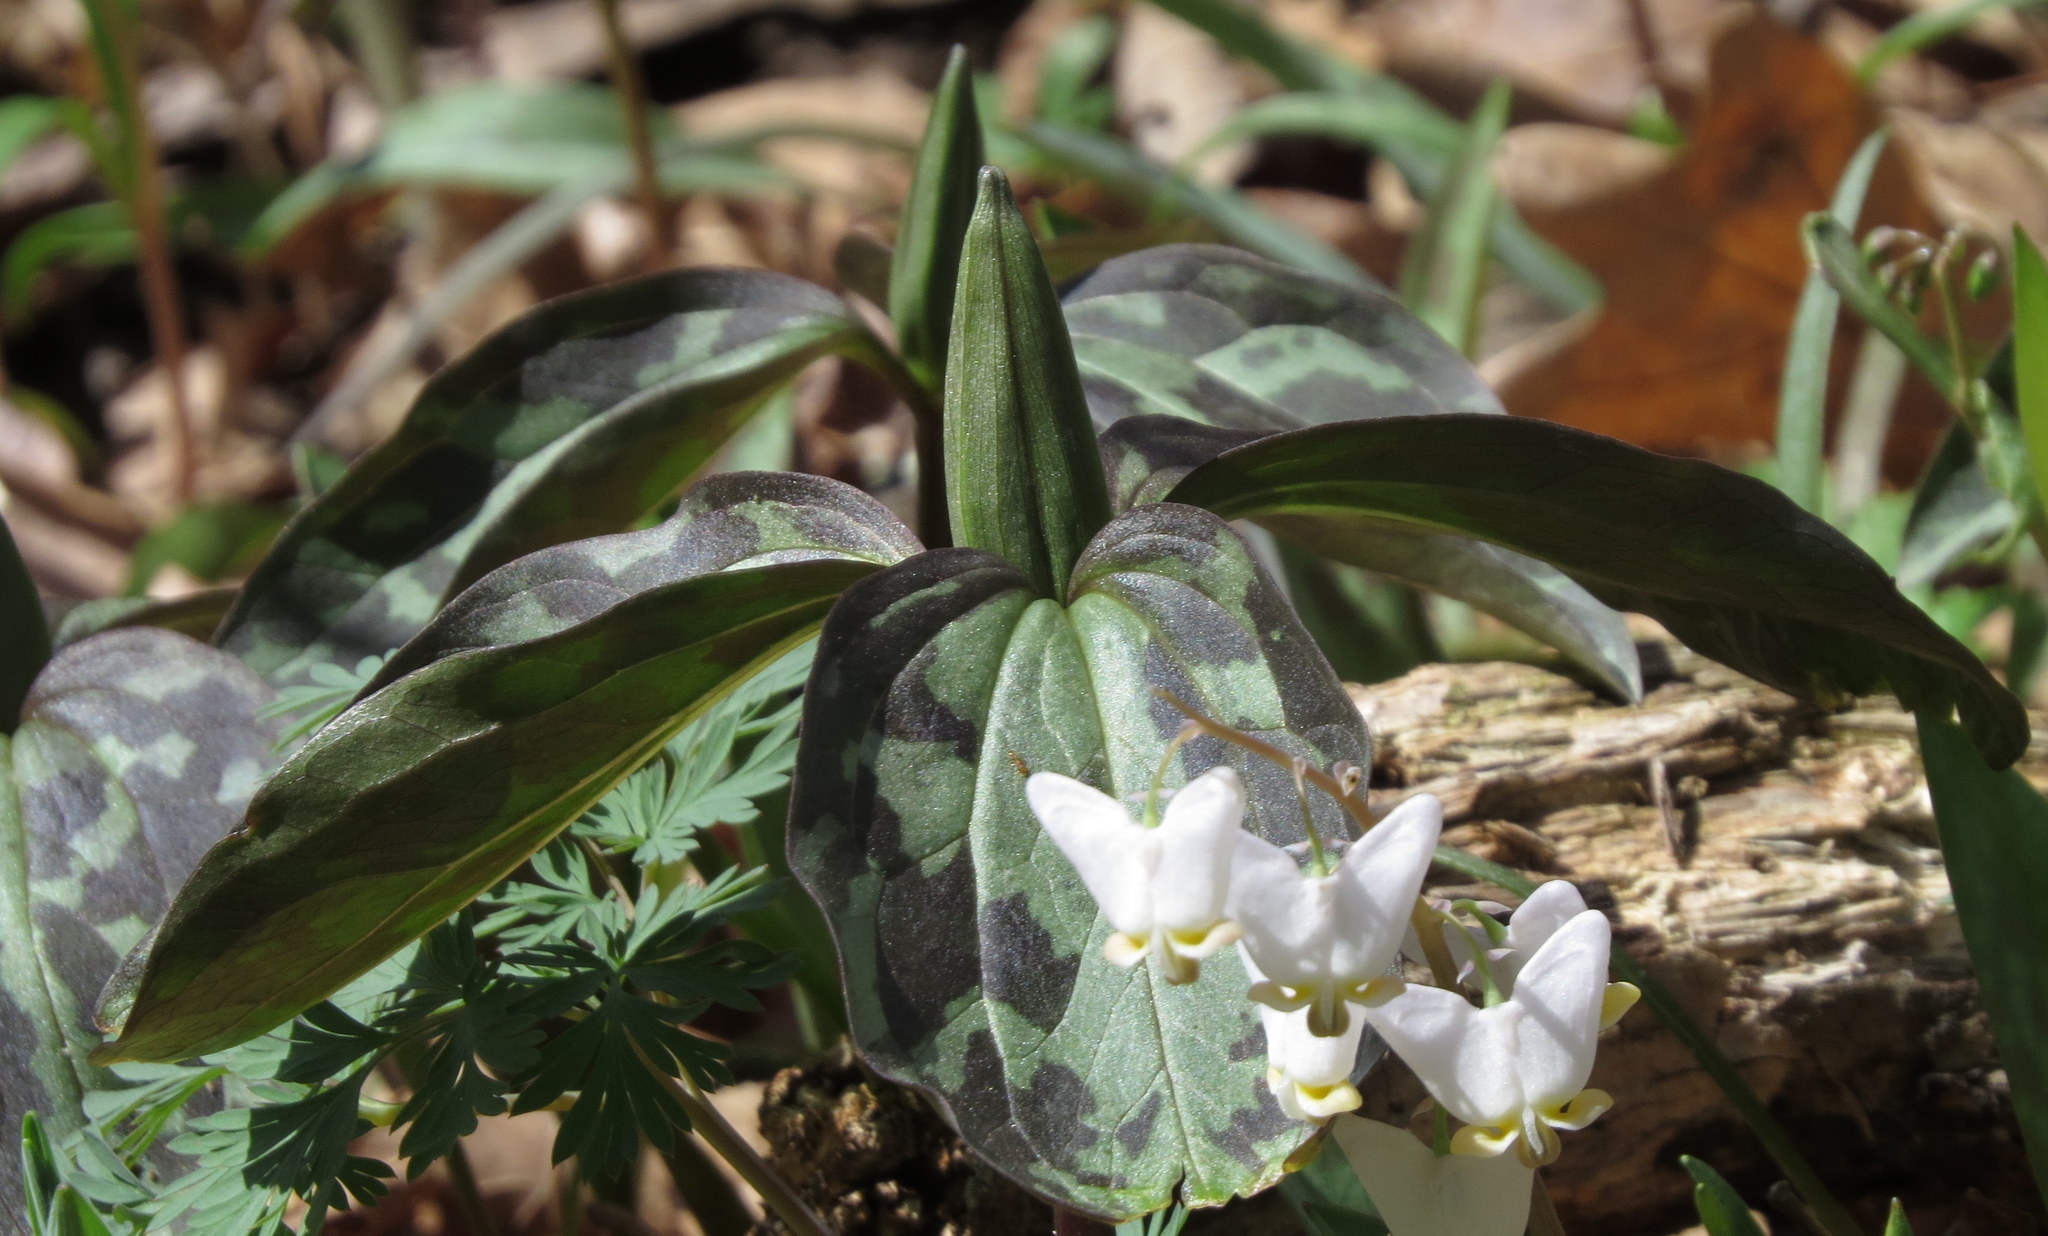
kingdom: Plantae
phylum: Tracheophyta
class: Liliopsida
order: Liliales
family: Melanthiaceae
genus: Trillium
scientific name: Trillium recurvatum
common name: Bloody butcher
